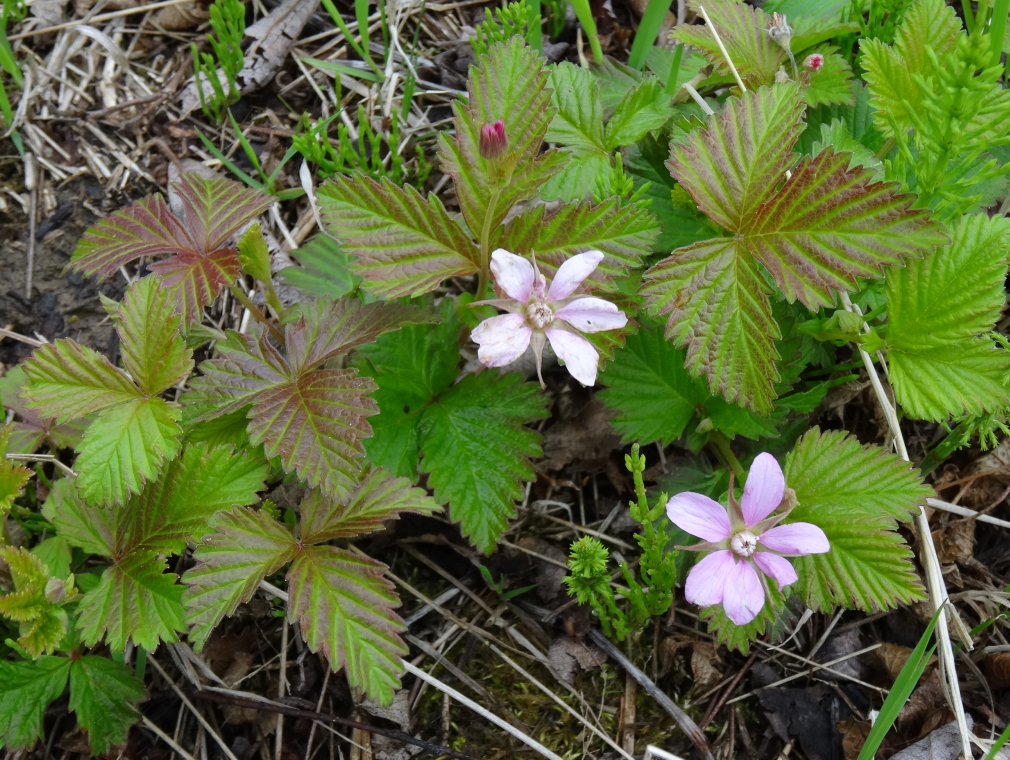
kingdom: Plantae
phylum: Tracheophyta
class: Magnoliopsida
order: Rosales
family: Rosaceae
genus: Rubus
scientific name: Rubus arcticus
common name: Arctic bramble
